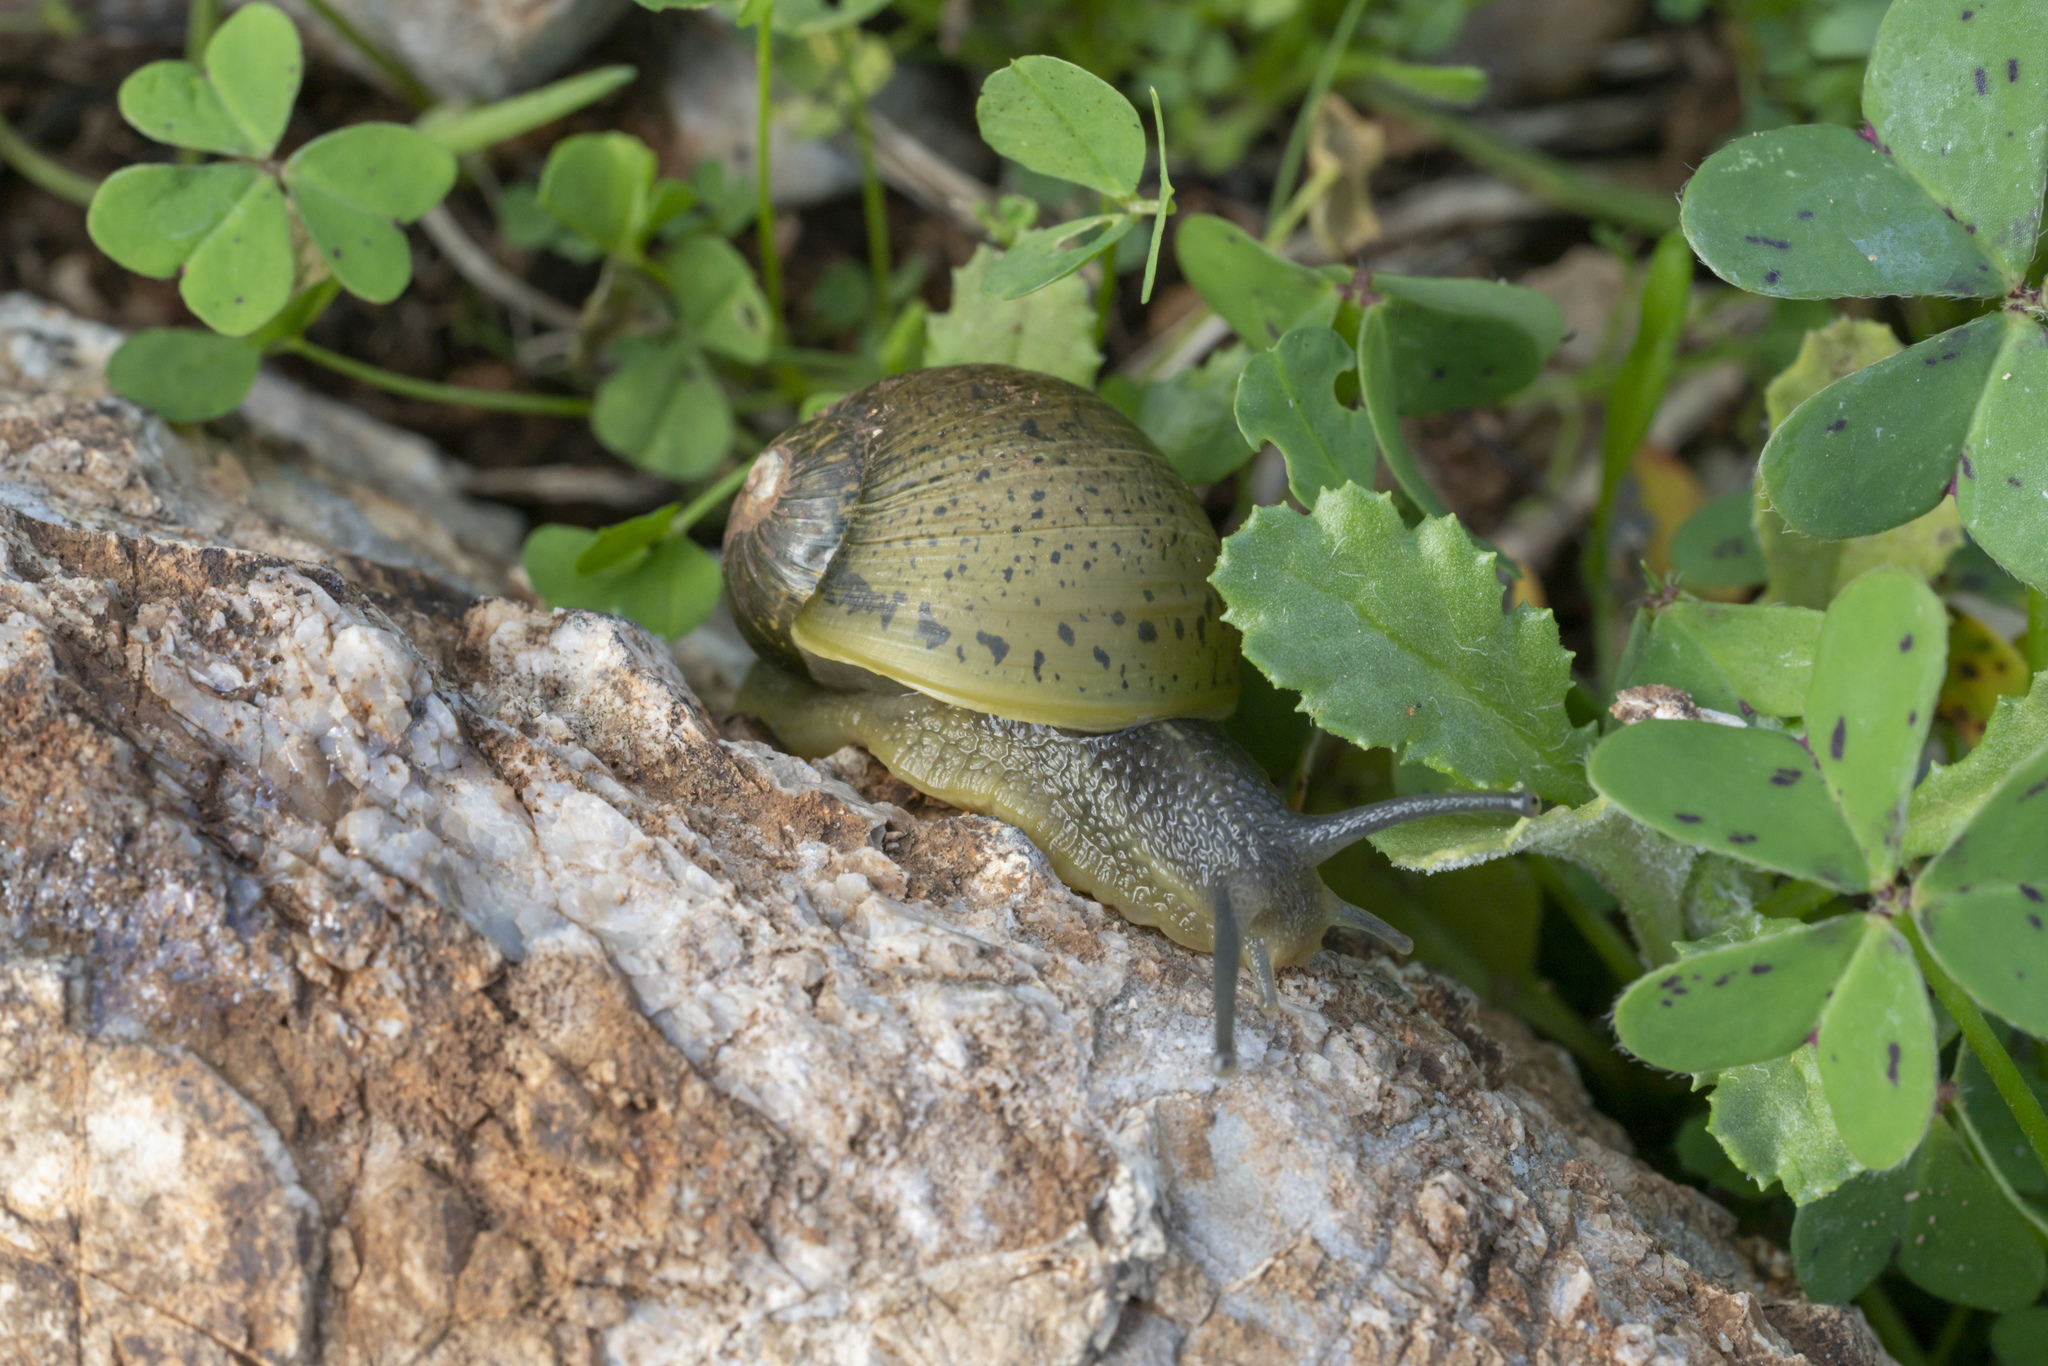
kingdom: Animalia
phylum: Mollusca
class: Gastropoda
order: Stylommatophora
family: Helicidae
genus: Cantareus
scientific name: Cantareus apertus
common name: Green gardensnail
